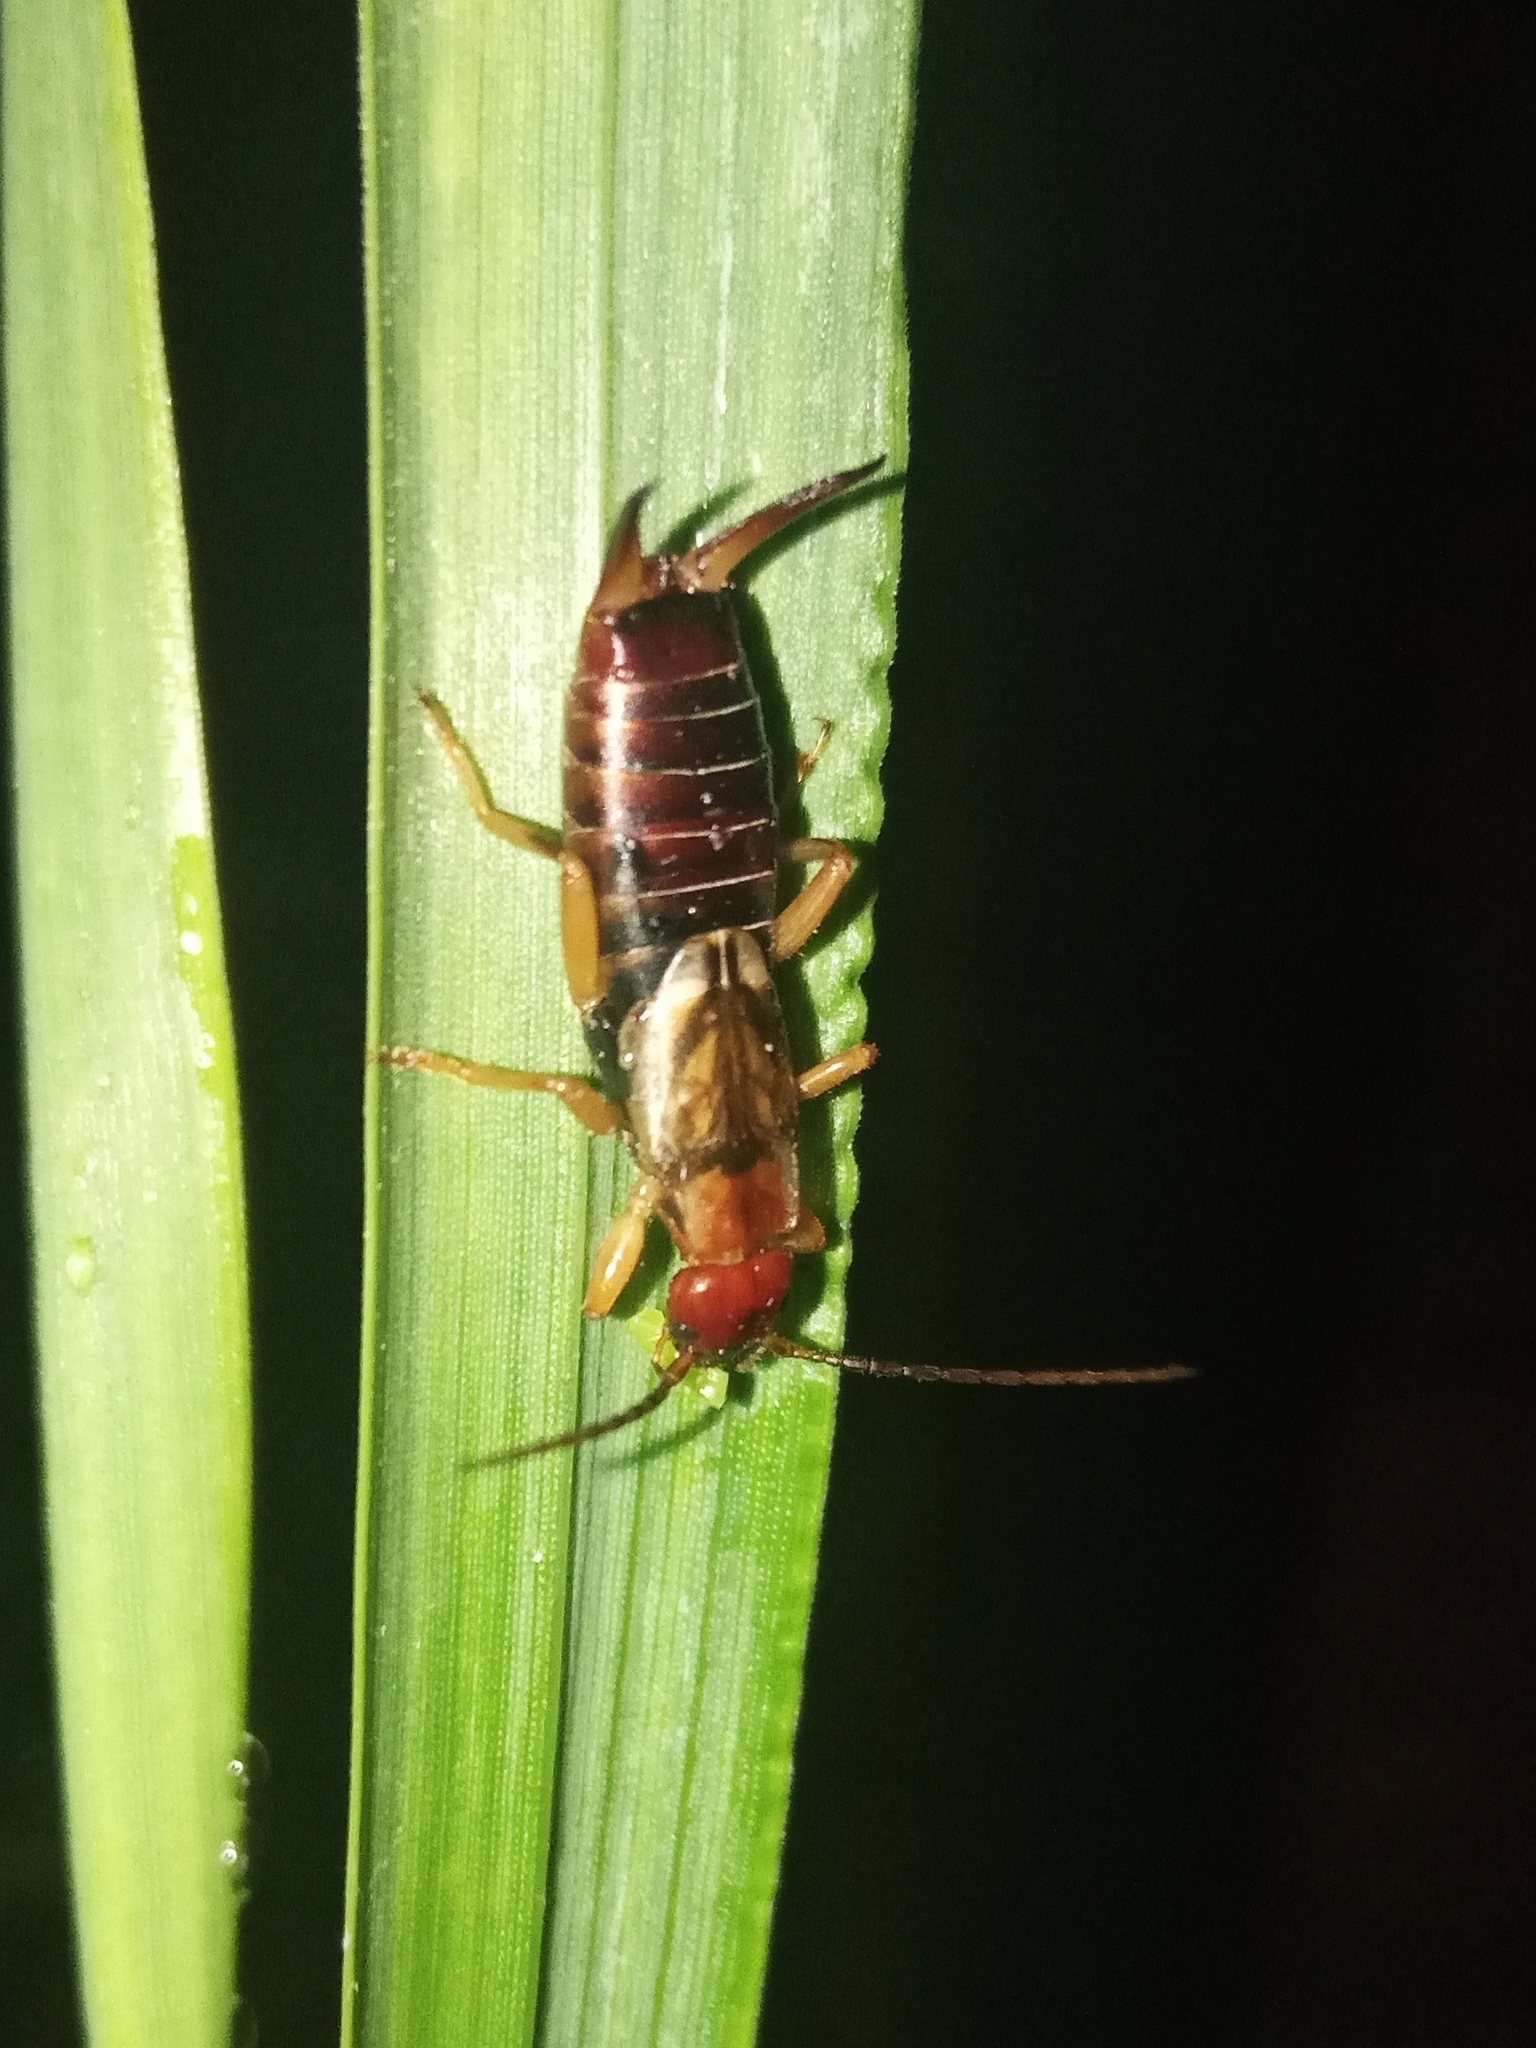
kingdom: Animalia
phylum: Arthropoda
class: Insecta
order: Dermaptera
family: Forficulidae
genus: Forficula
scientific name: Forficula
